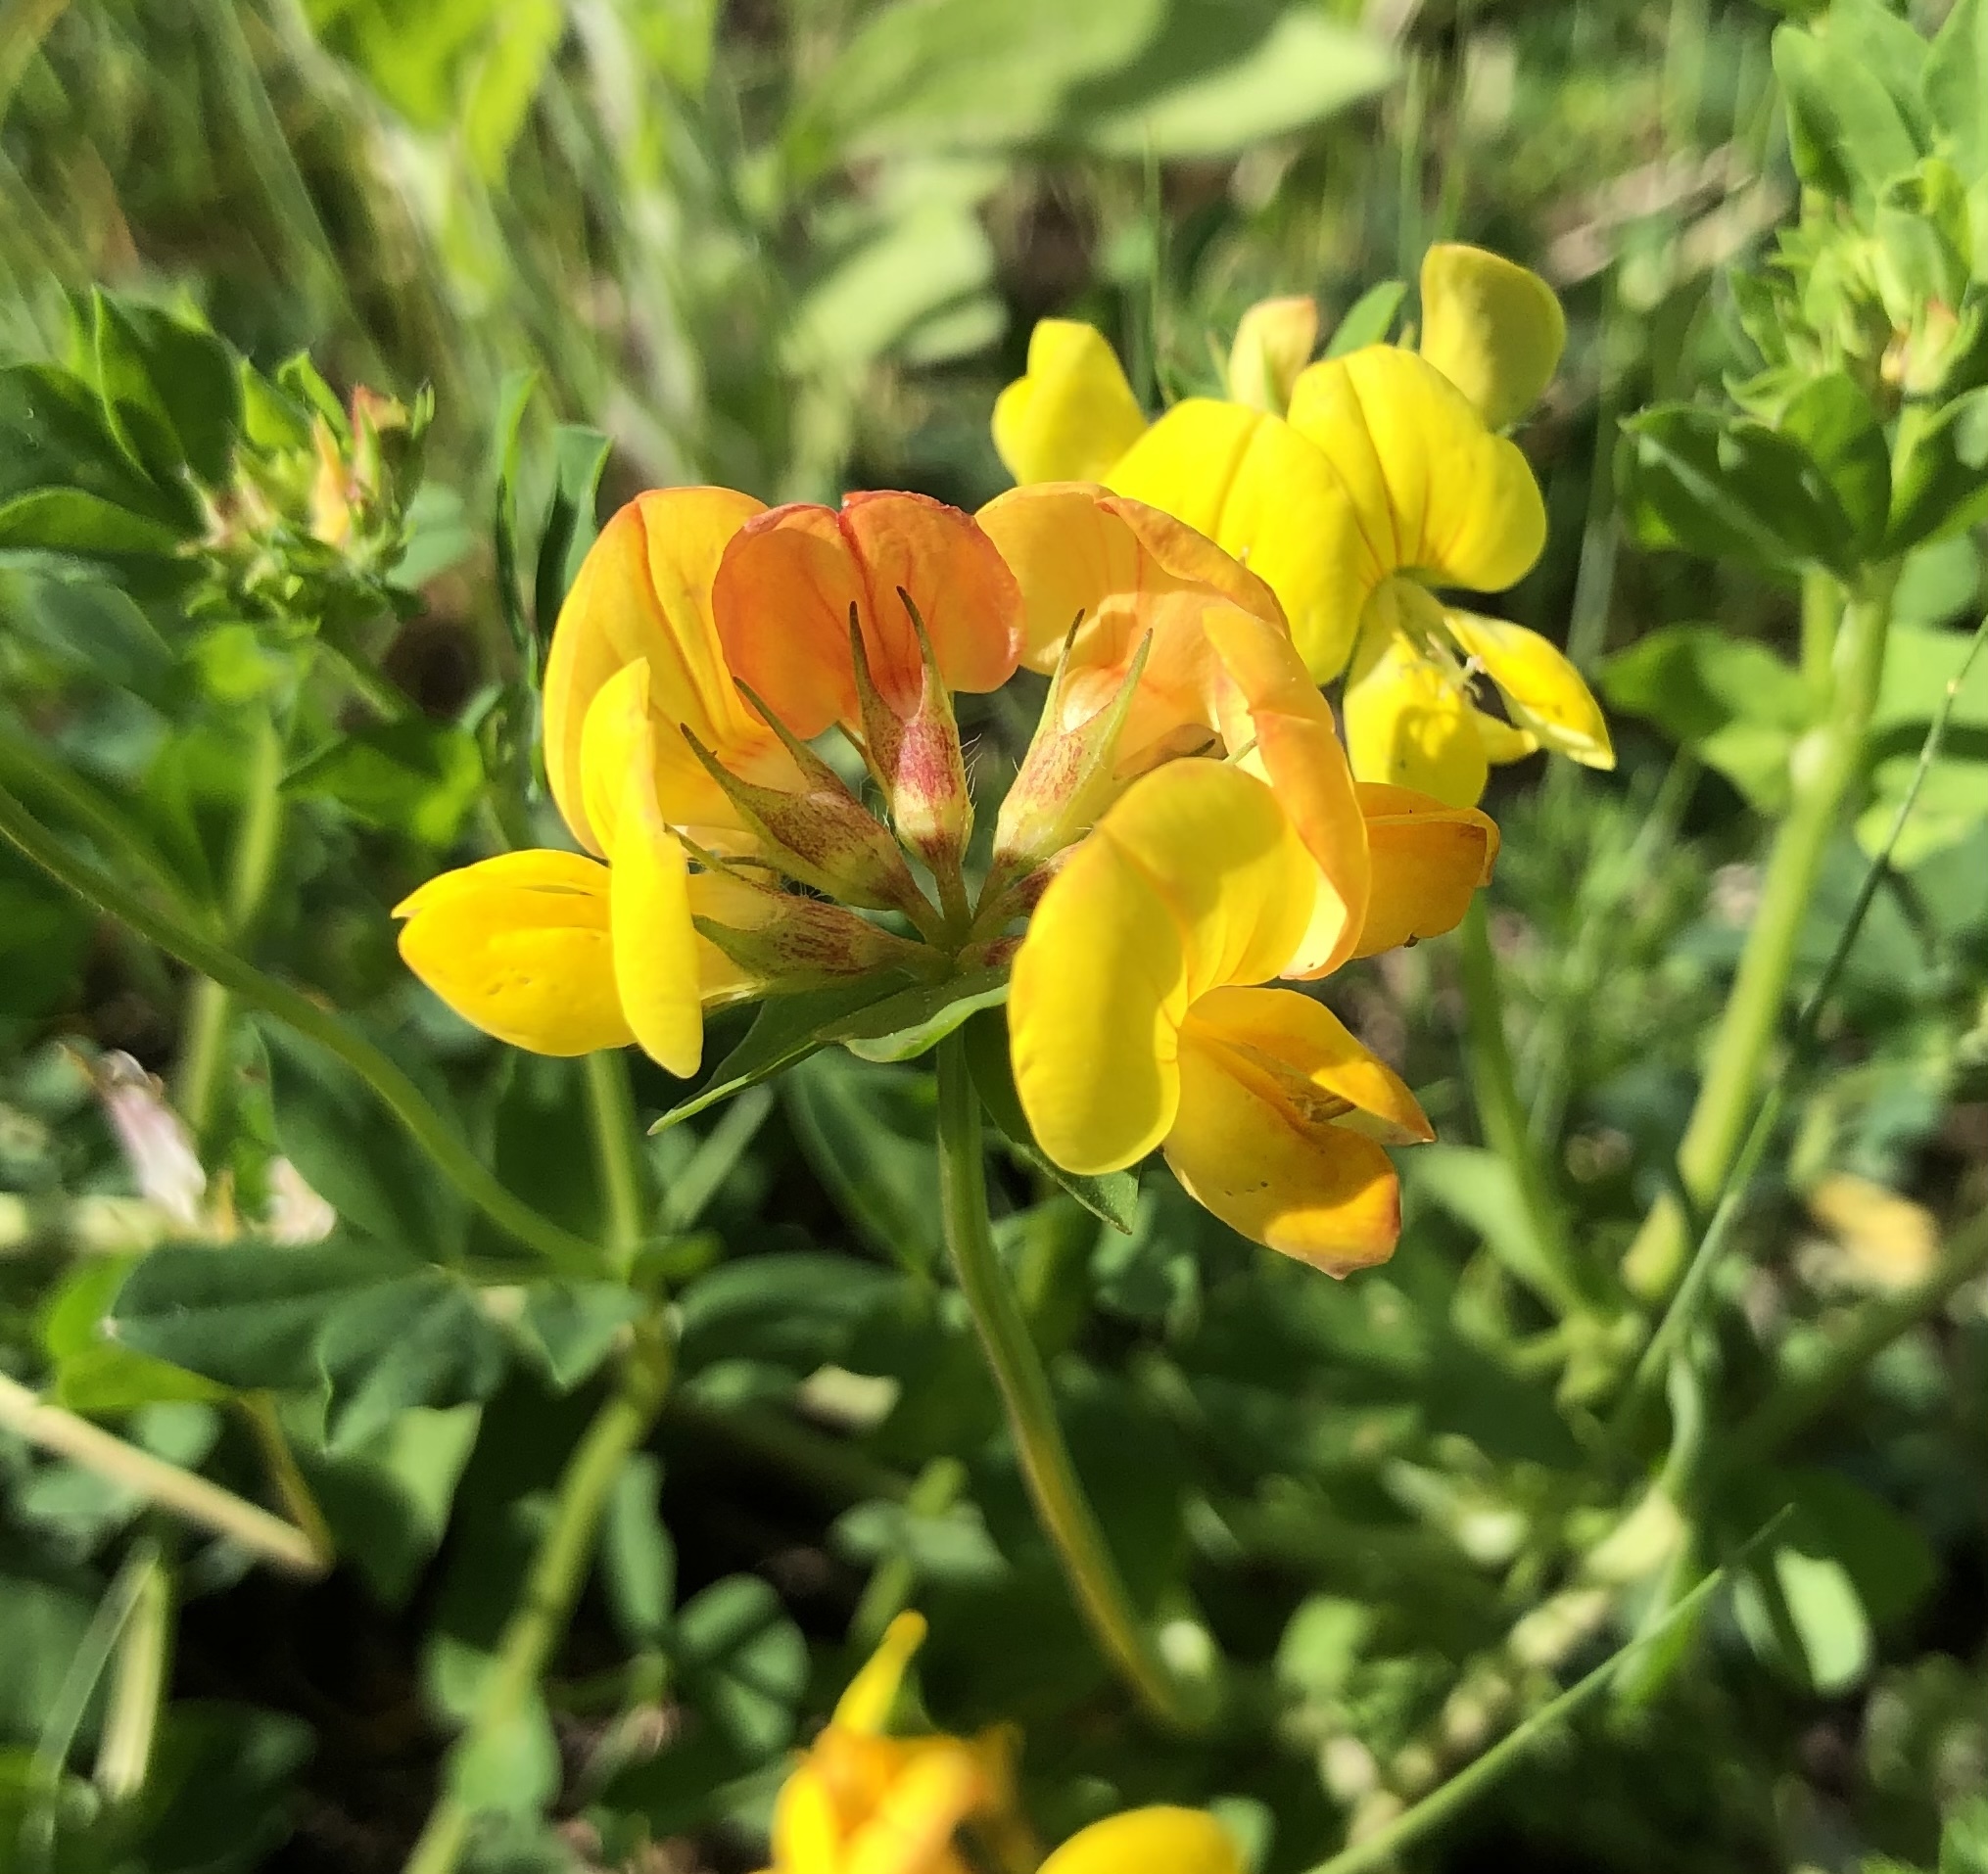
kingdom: Plantae
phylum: Tracheophyta
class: Magnoliopsida
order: Fabales
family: Fabaceae
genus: Lotus
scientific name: Lotus corniculatus
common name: Common bird's-foot-trefoil
